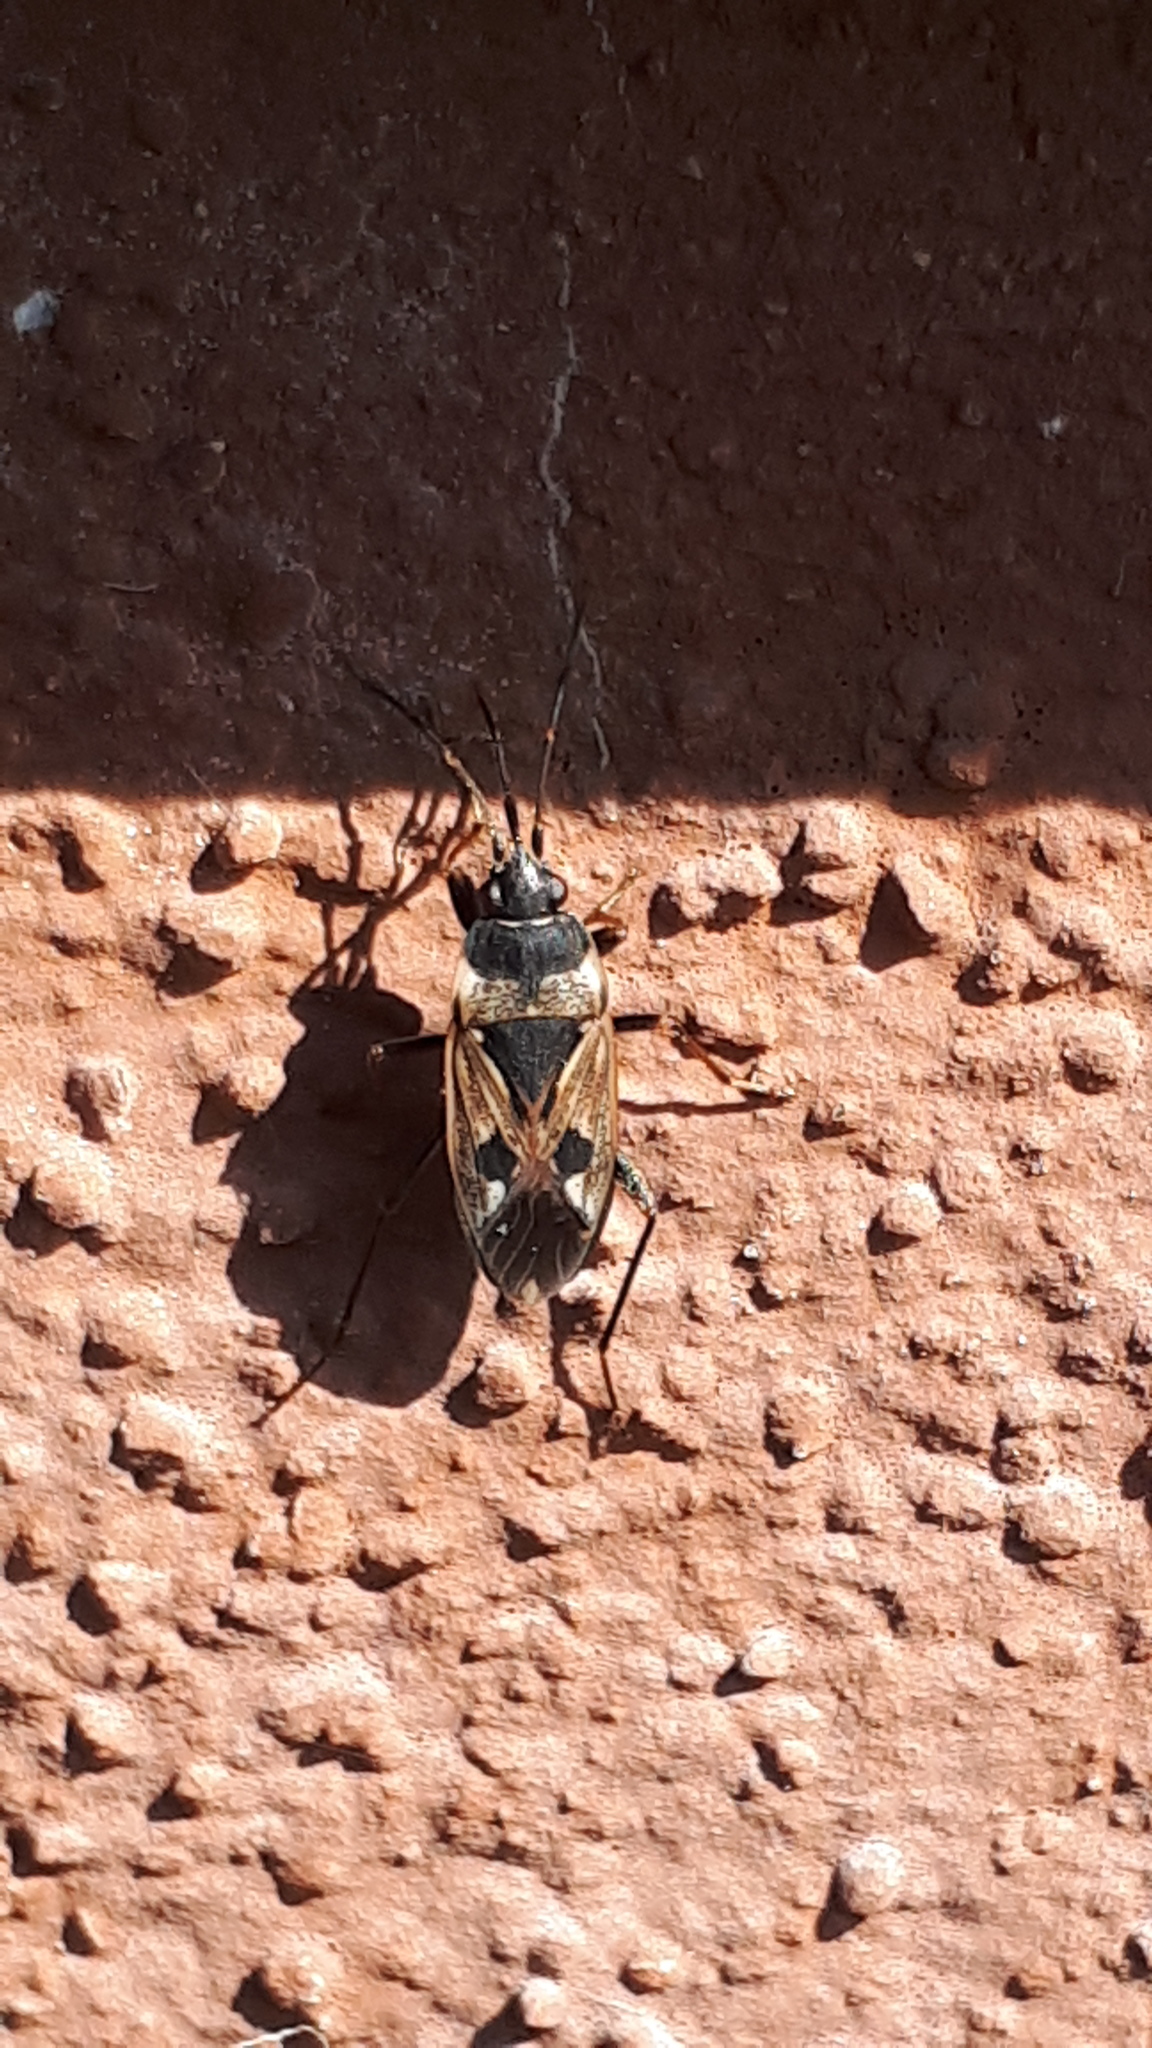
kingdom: Animalia
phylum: Arthropoda
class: Insecta
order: Hemiptera
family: Rhyparochromidae
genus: Rhyparochromus
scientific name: Rhyparochromus vulgaris
